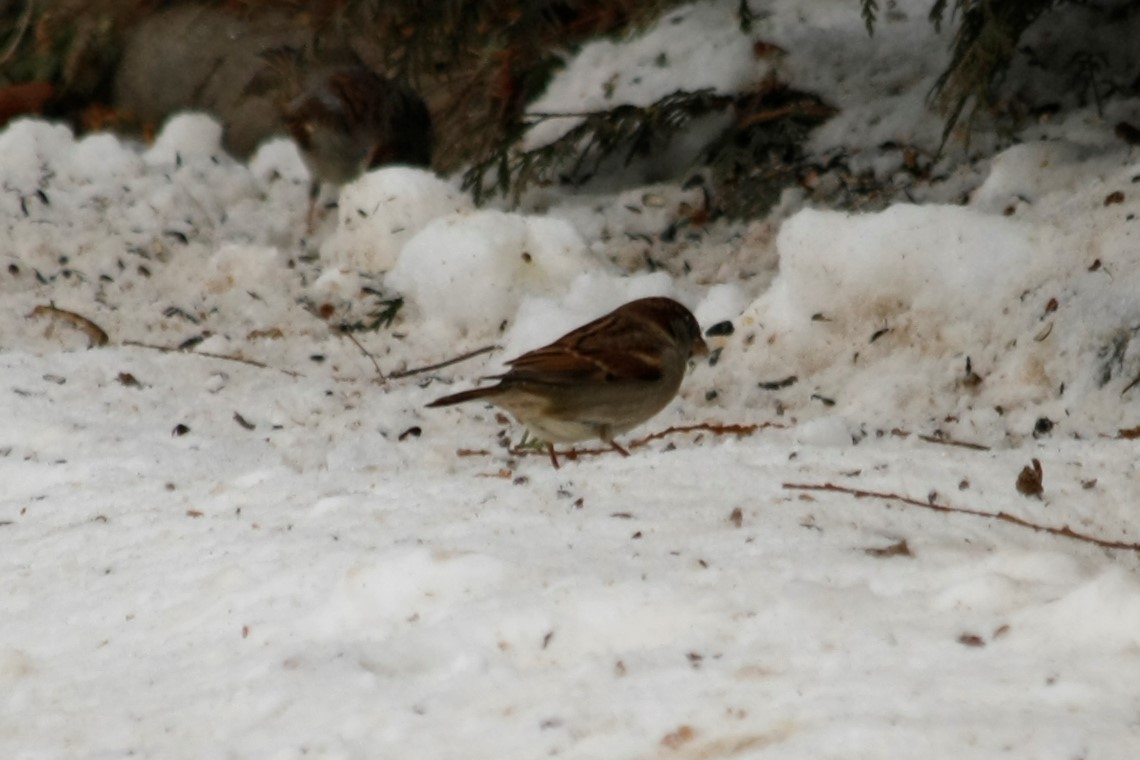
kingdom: Animalia
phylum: Chordata
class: Aves
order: Passeriformes
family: Passeridae
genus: Passer
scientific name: Passer domesticus
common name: House sparrow
